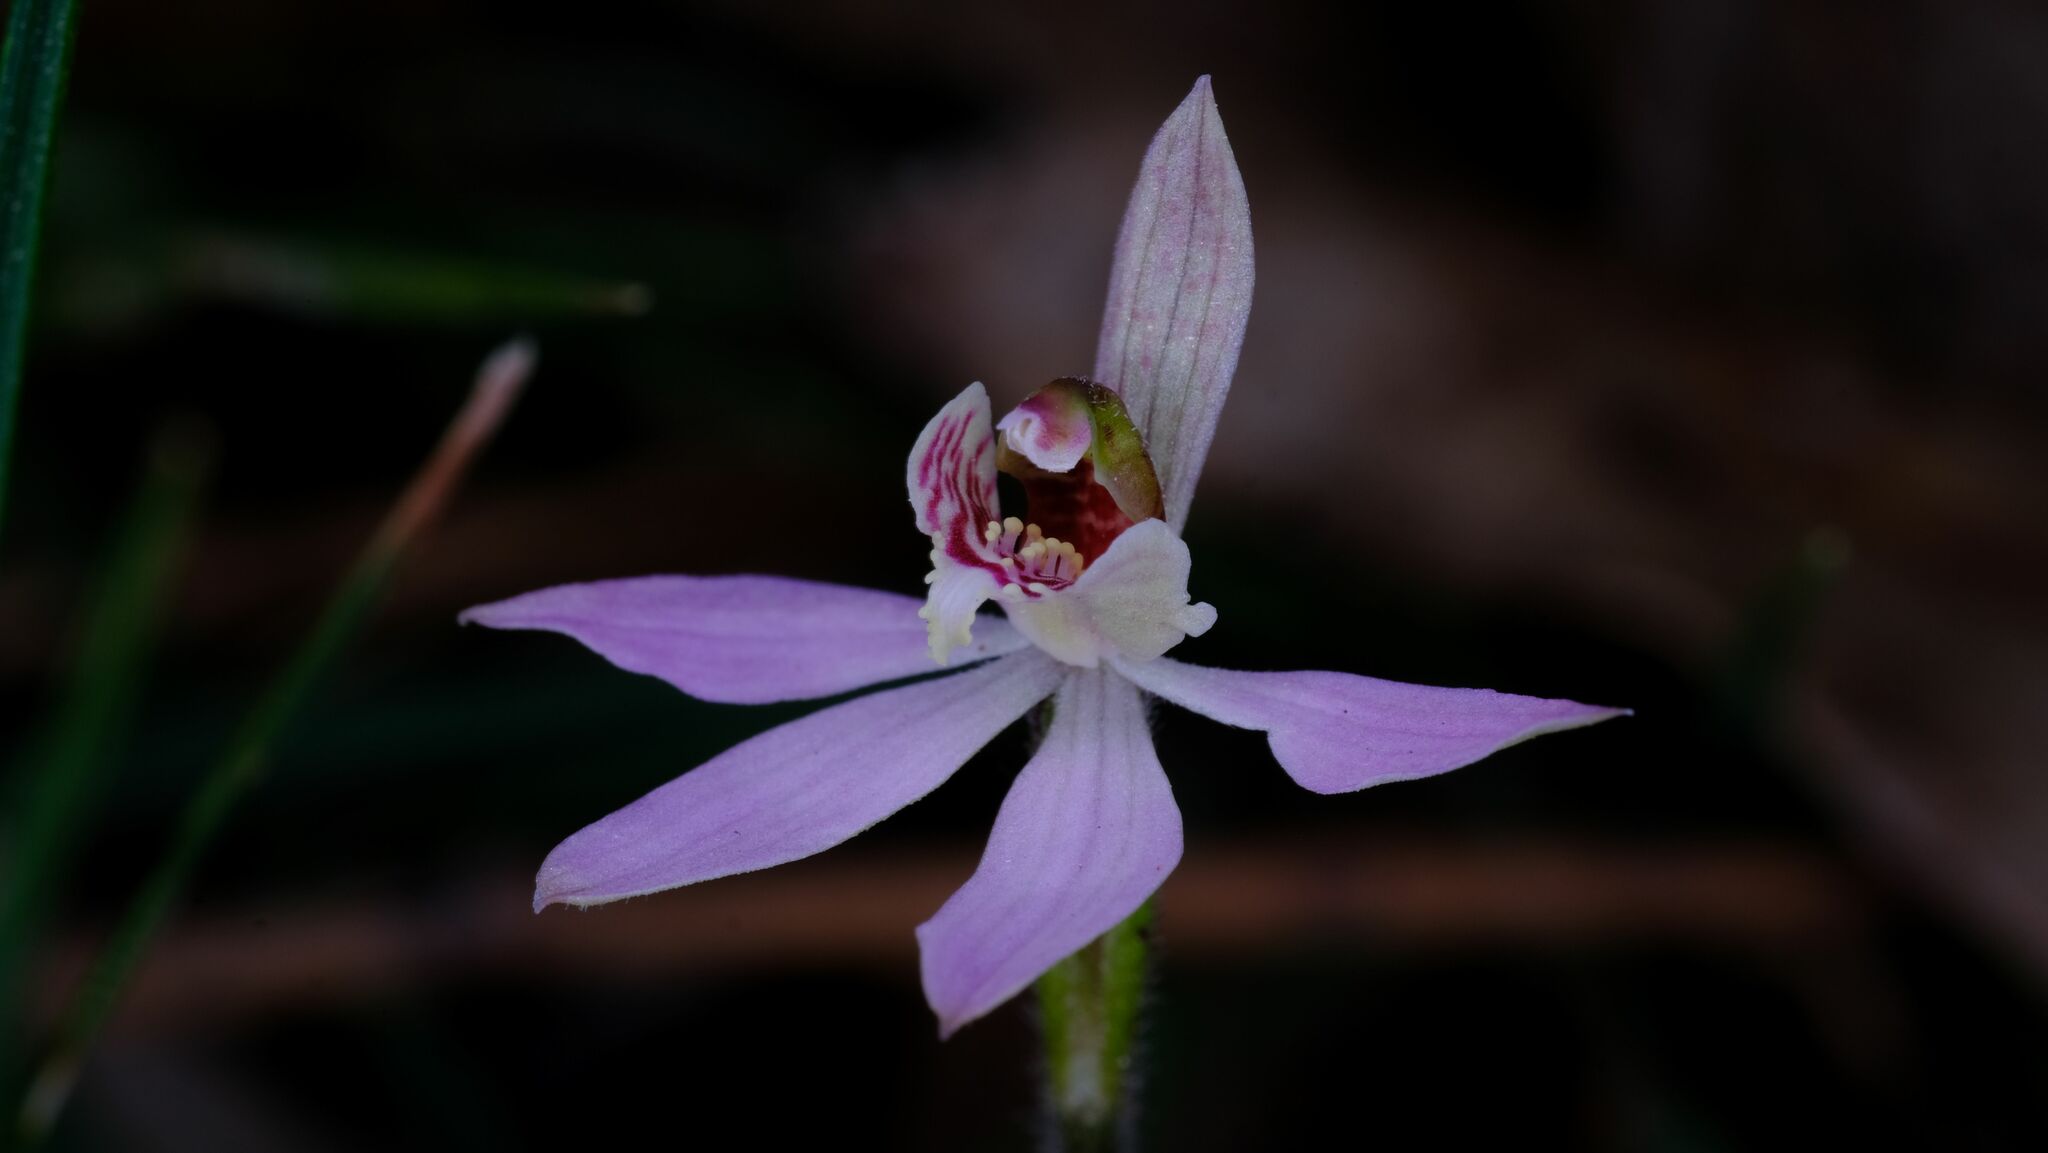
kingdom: Plantae
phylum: Tracheophyta
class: Liliopsida
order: Asparagales
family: Orchidaceae
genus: Caladenia
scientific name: Caladenia vulgaris
